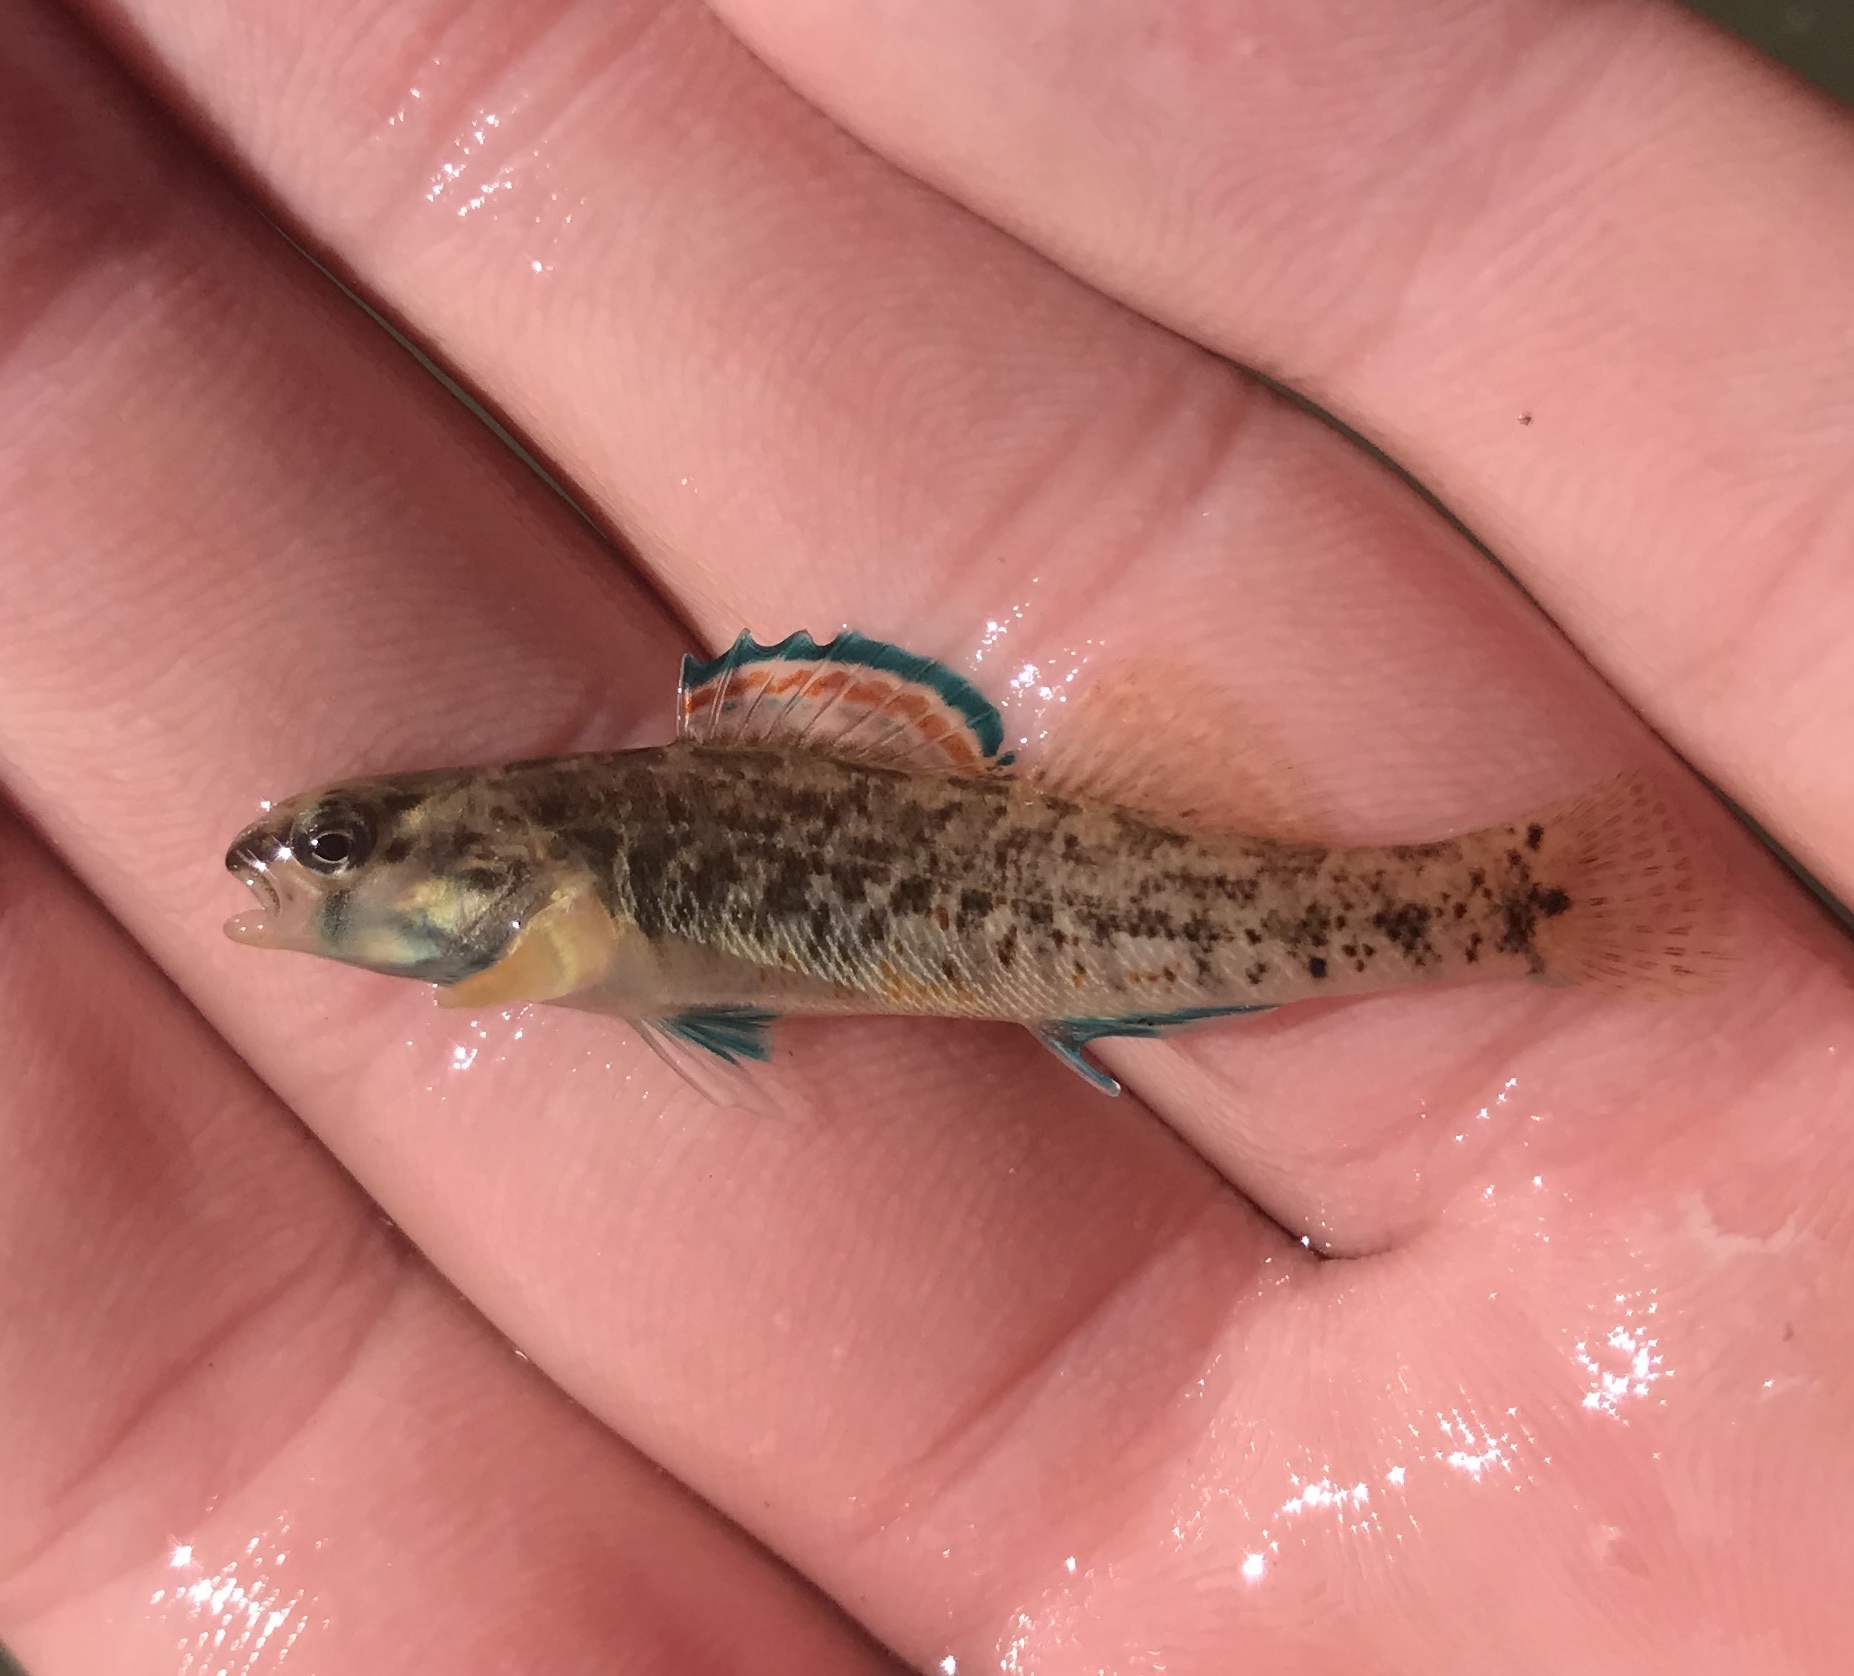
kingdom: Animalia
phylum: Chordata
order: Perciformes
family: Percidae
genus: Etheostoma
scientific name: Etheostoma lepidum
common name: Greenthroat darter
